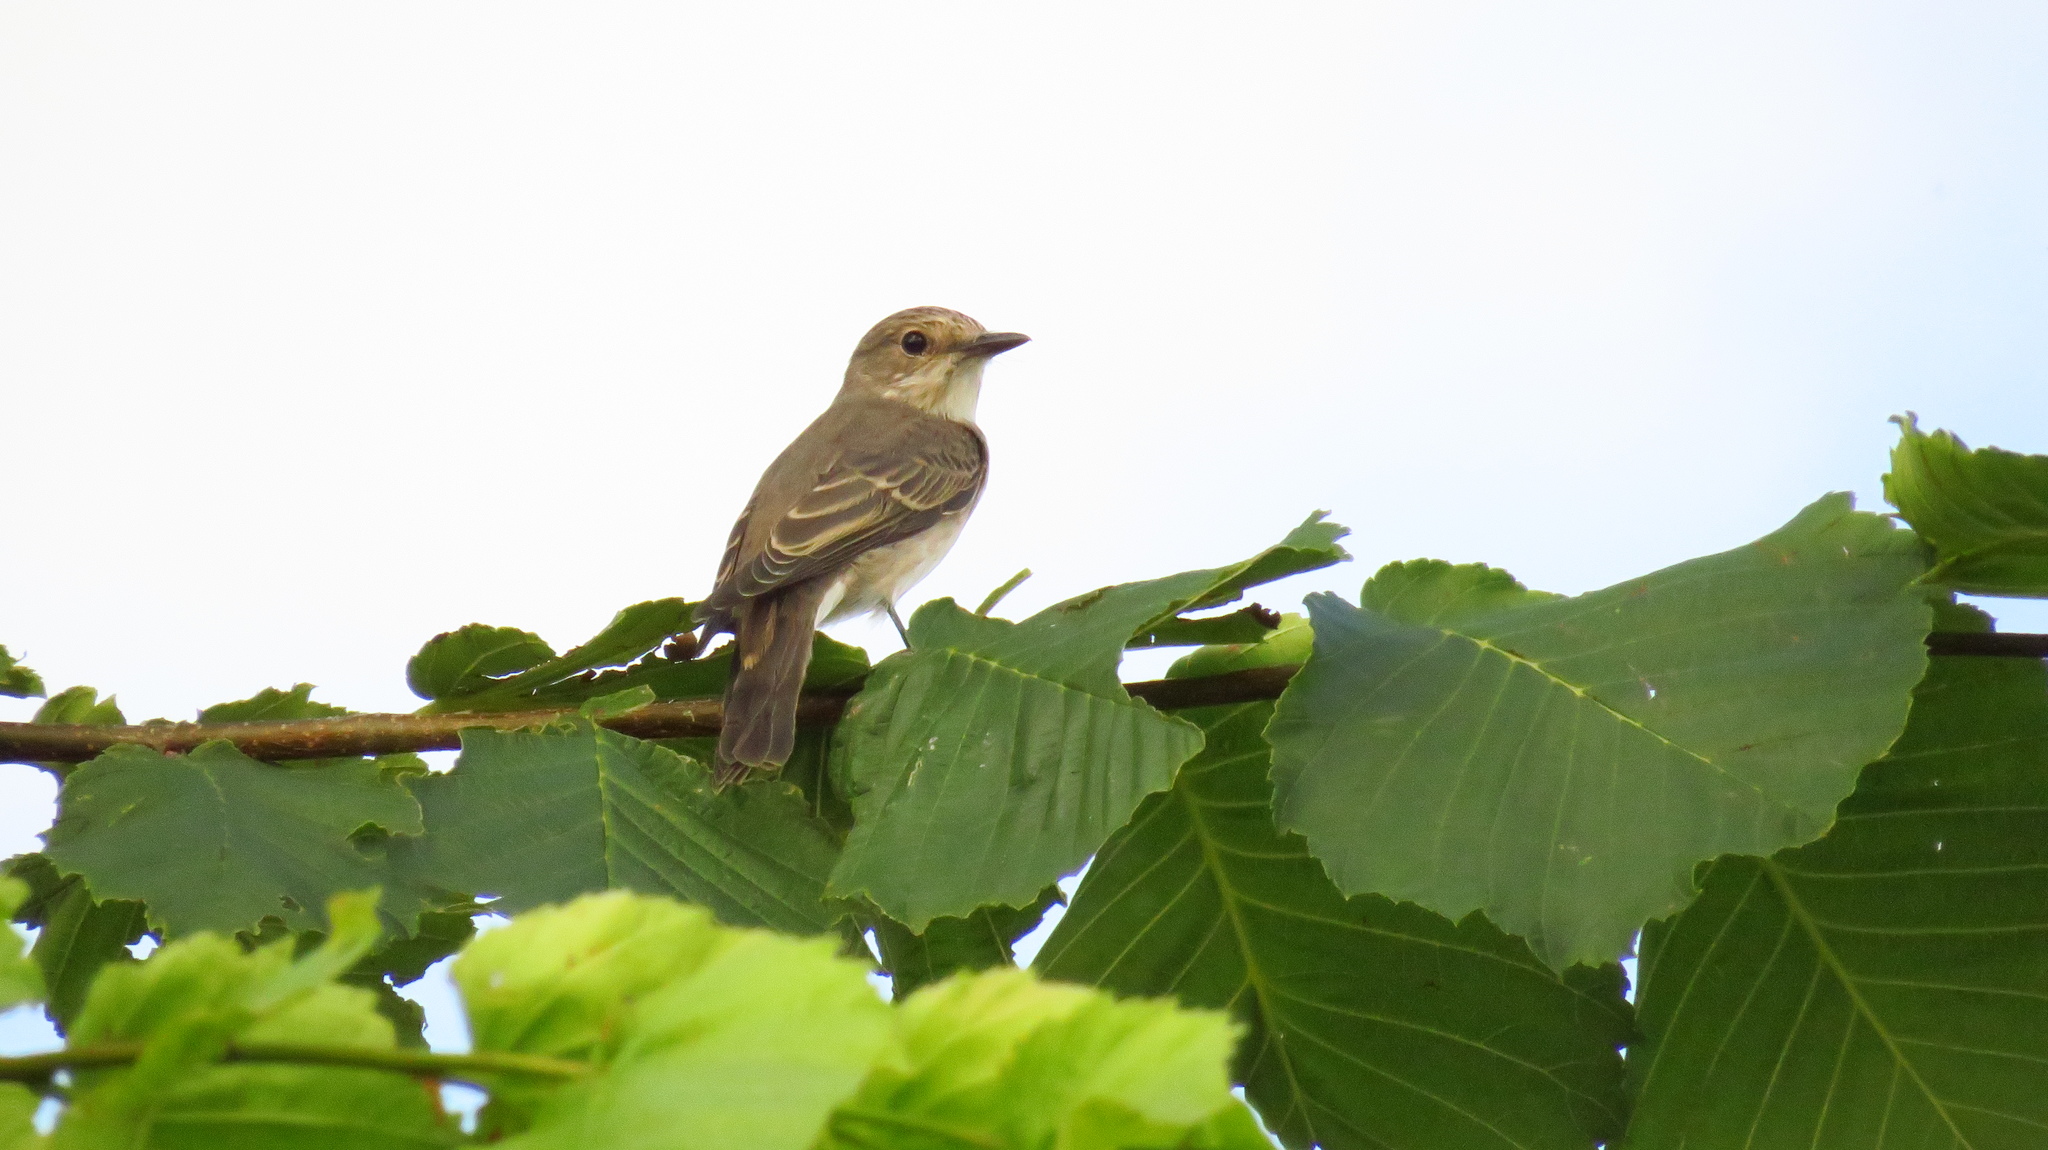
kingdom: Animalia
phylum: Chordata
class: Aves
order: Passeriformes
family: Muscicapidae
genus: Muscicapa
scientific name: Muscicapa striata
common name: Spotted flycatcher
